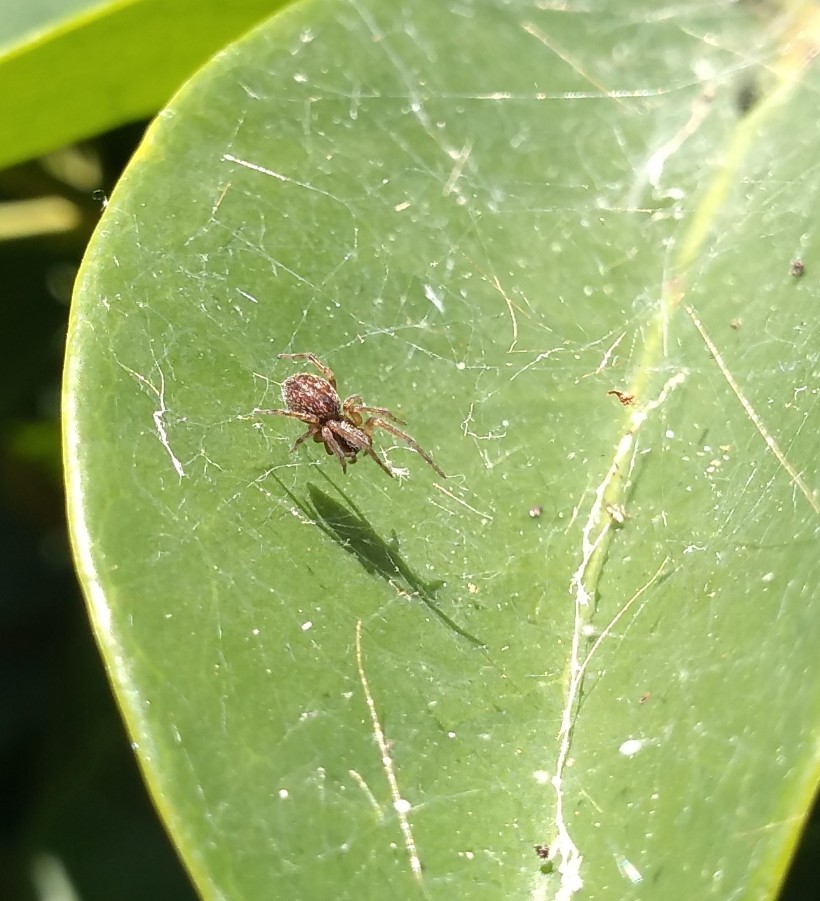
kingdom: Animalia
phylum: Arthropoda
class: Arachnida
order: Araneae
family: Desidae
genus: Badumna
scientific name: Badumna longinqua
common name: Gray house spider
